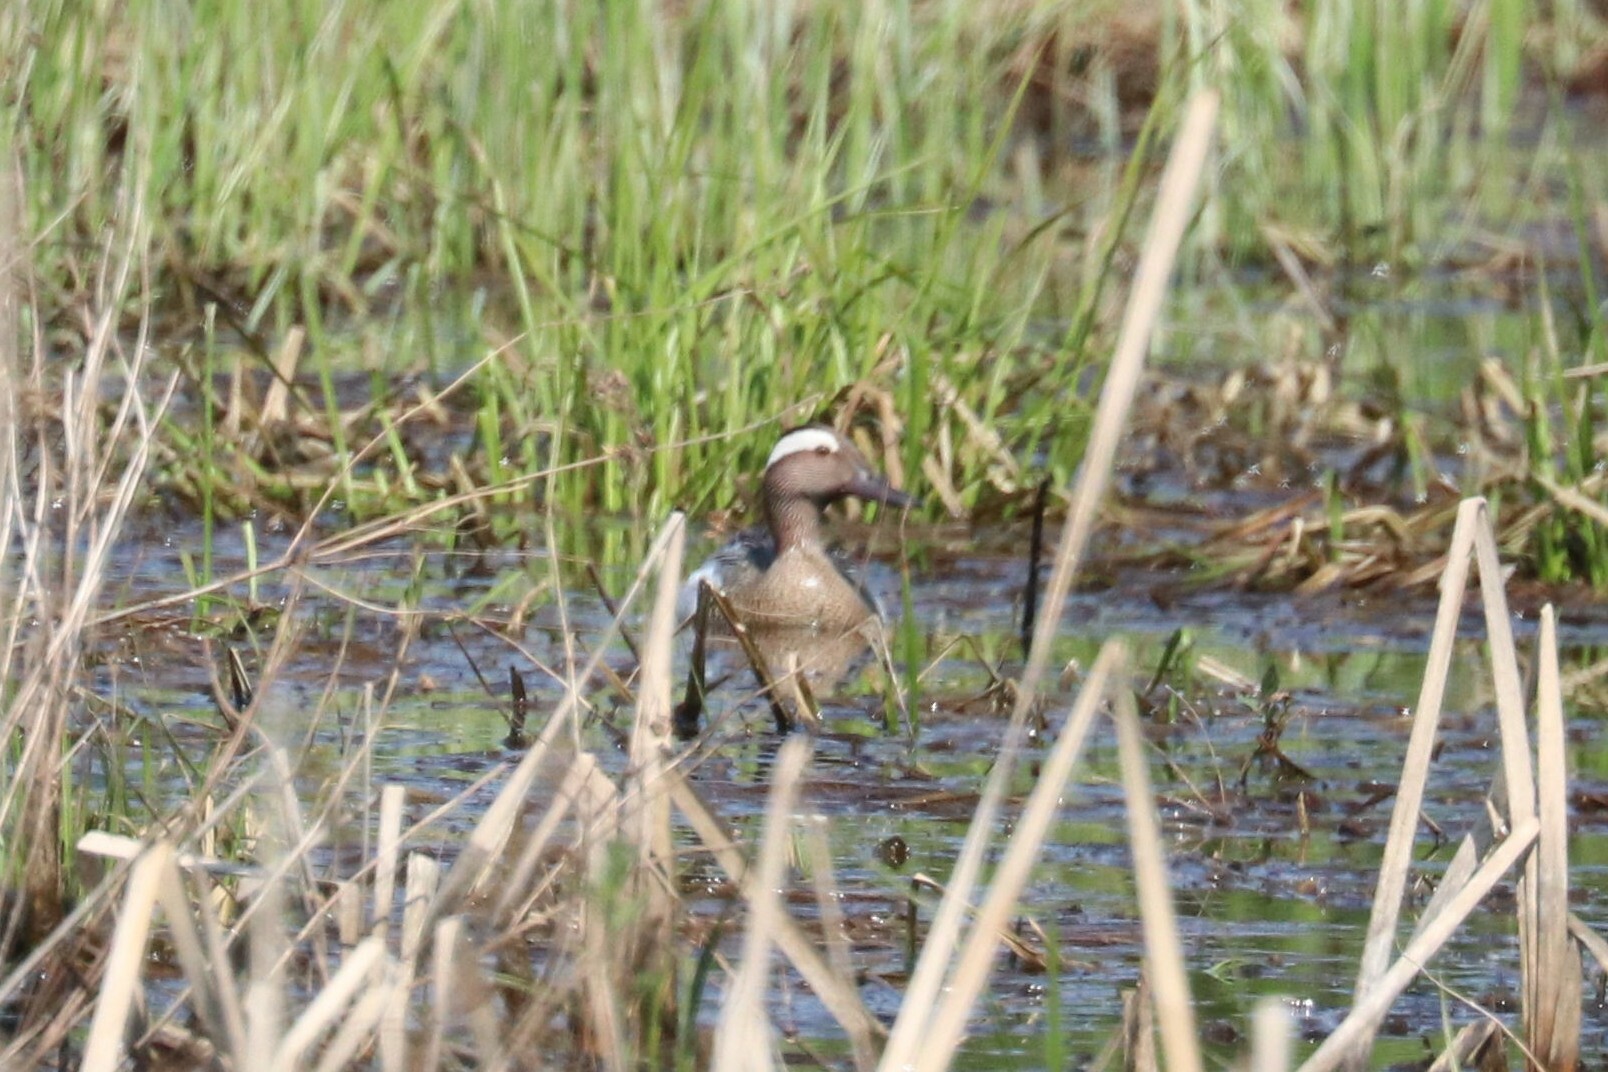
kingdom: Animalia
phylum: Chordata
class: Aves
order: Anseriformes
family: Anatidae
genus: Spatula
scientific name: Spatula querquedula
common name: Garganey
